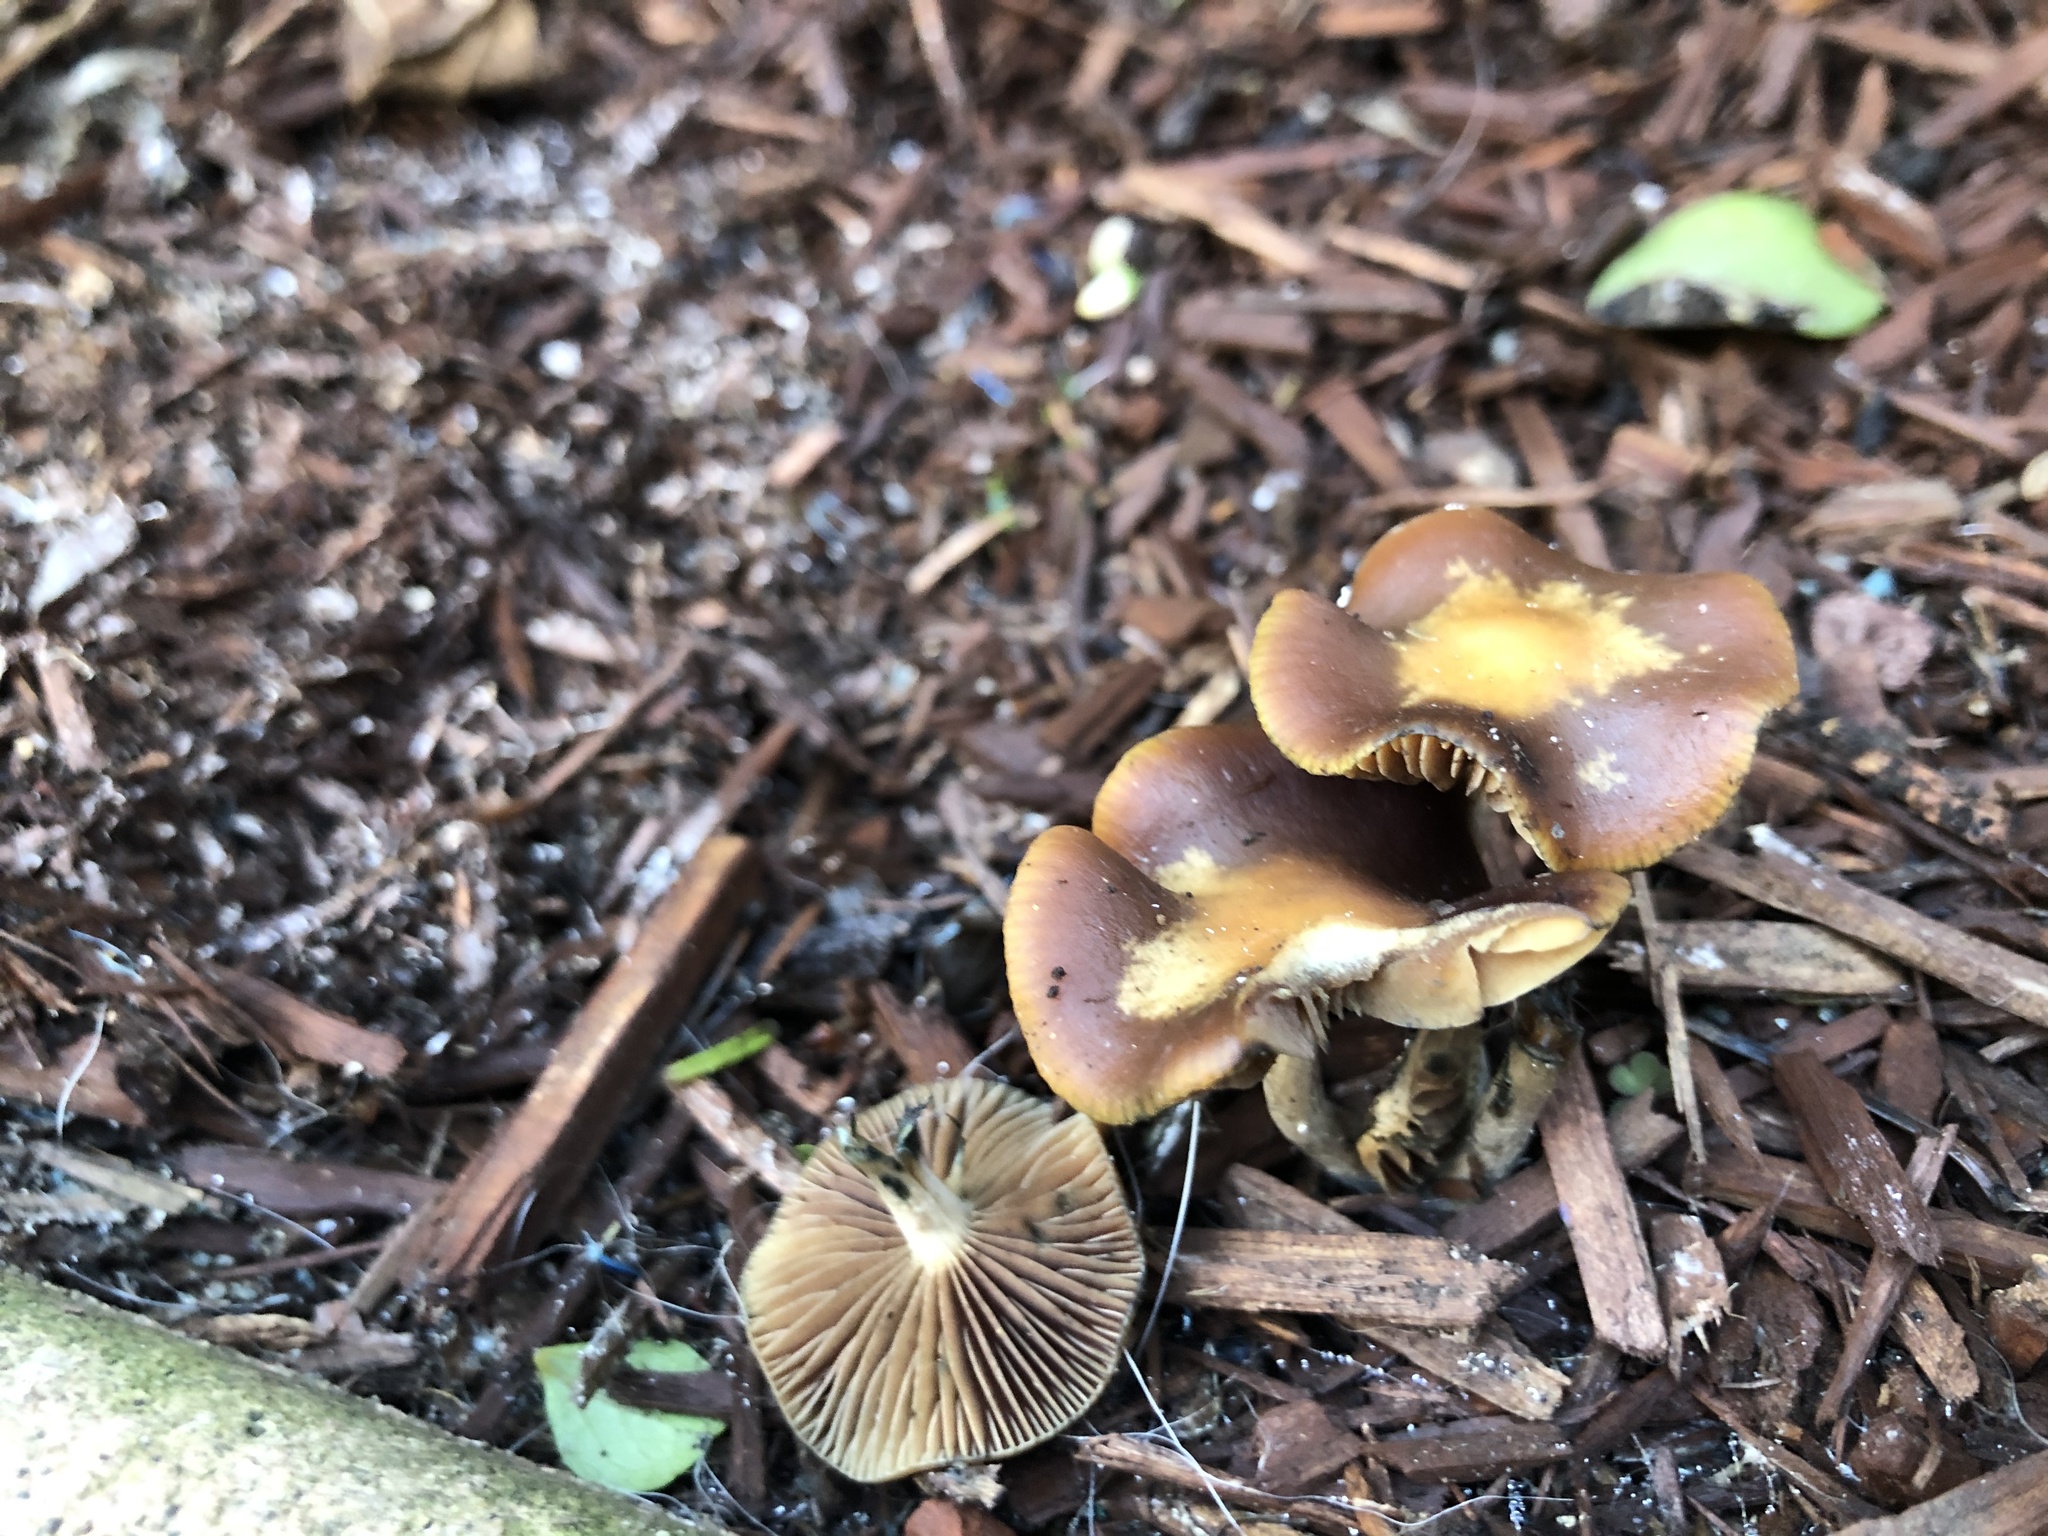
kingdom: Fungi
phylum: Basidiomycota
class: Agaricomycetes
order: Agaricales
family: Hymenogastraceae
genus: Psilocybe
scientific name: Psilocybe cyanescens
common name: Blueleg brownie
